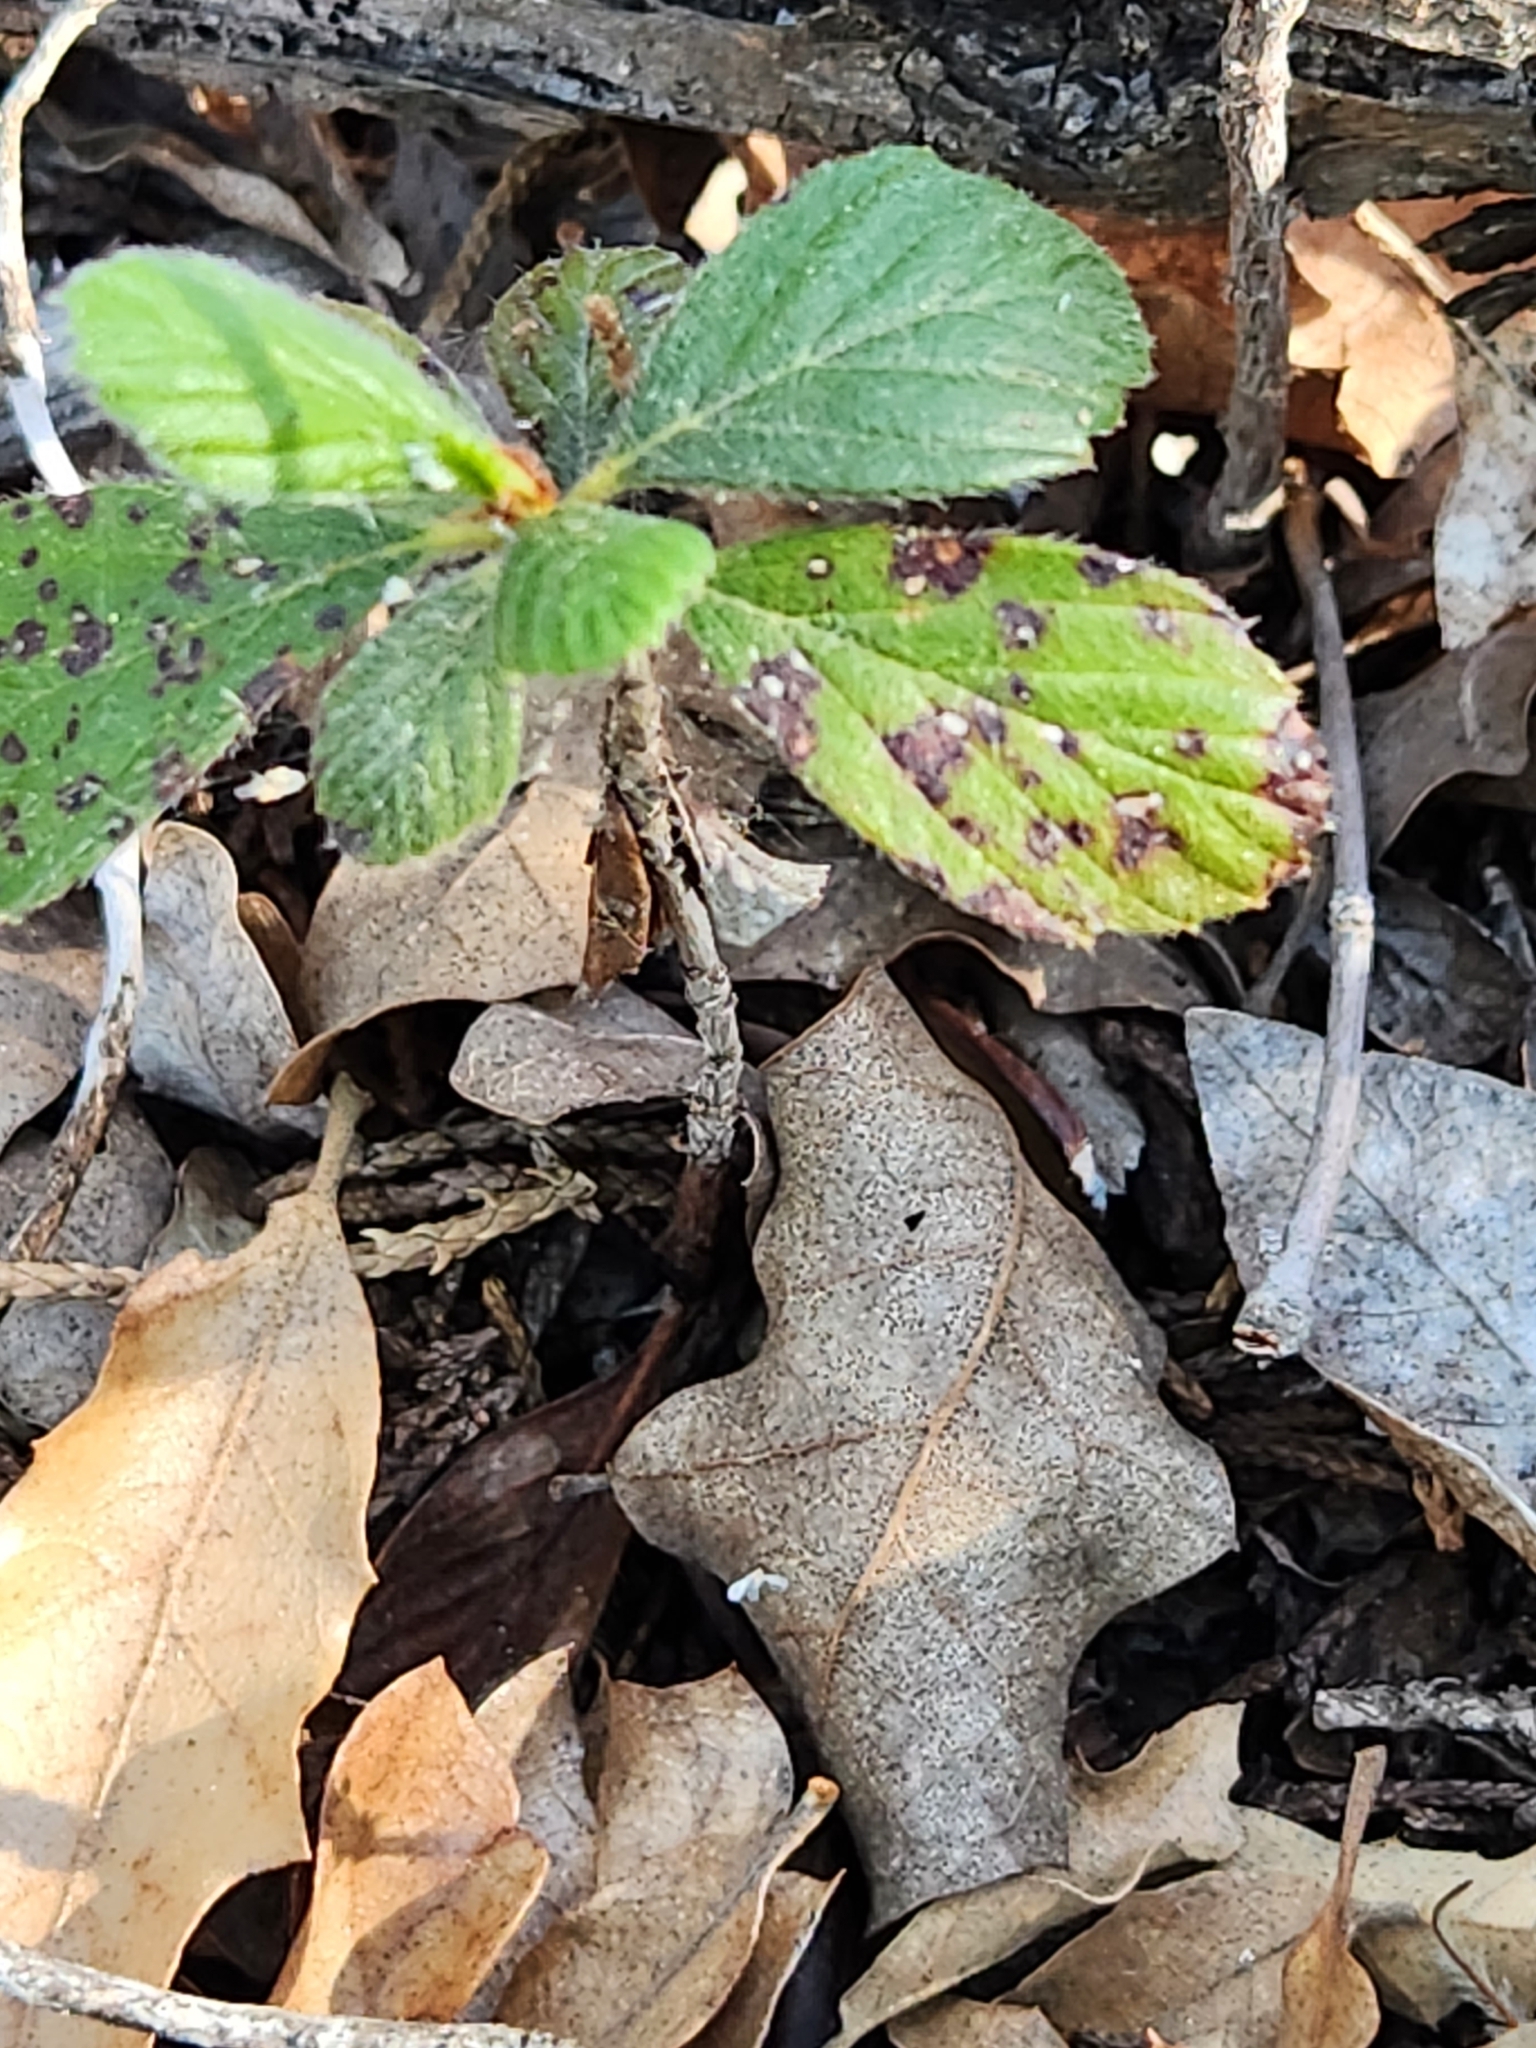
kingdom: Plantae
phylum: Tracheophyta
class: Magnoliopsida
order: Rosales
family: Rosaceae
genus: Cercocarpus
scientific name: Cercocarpus montanus
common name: Alder-leaf cercocarpus
